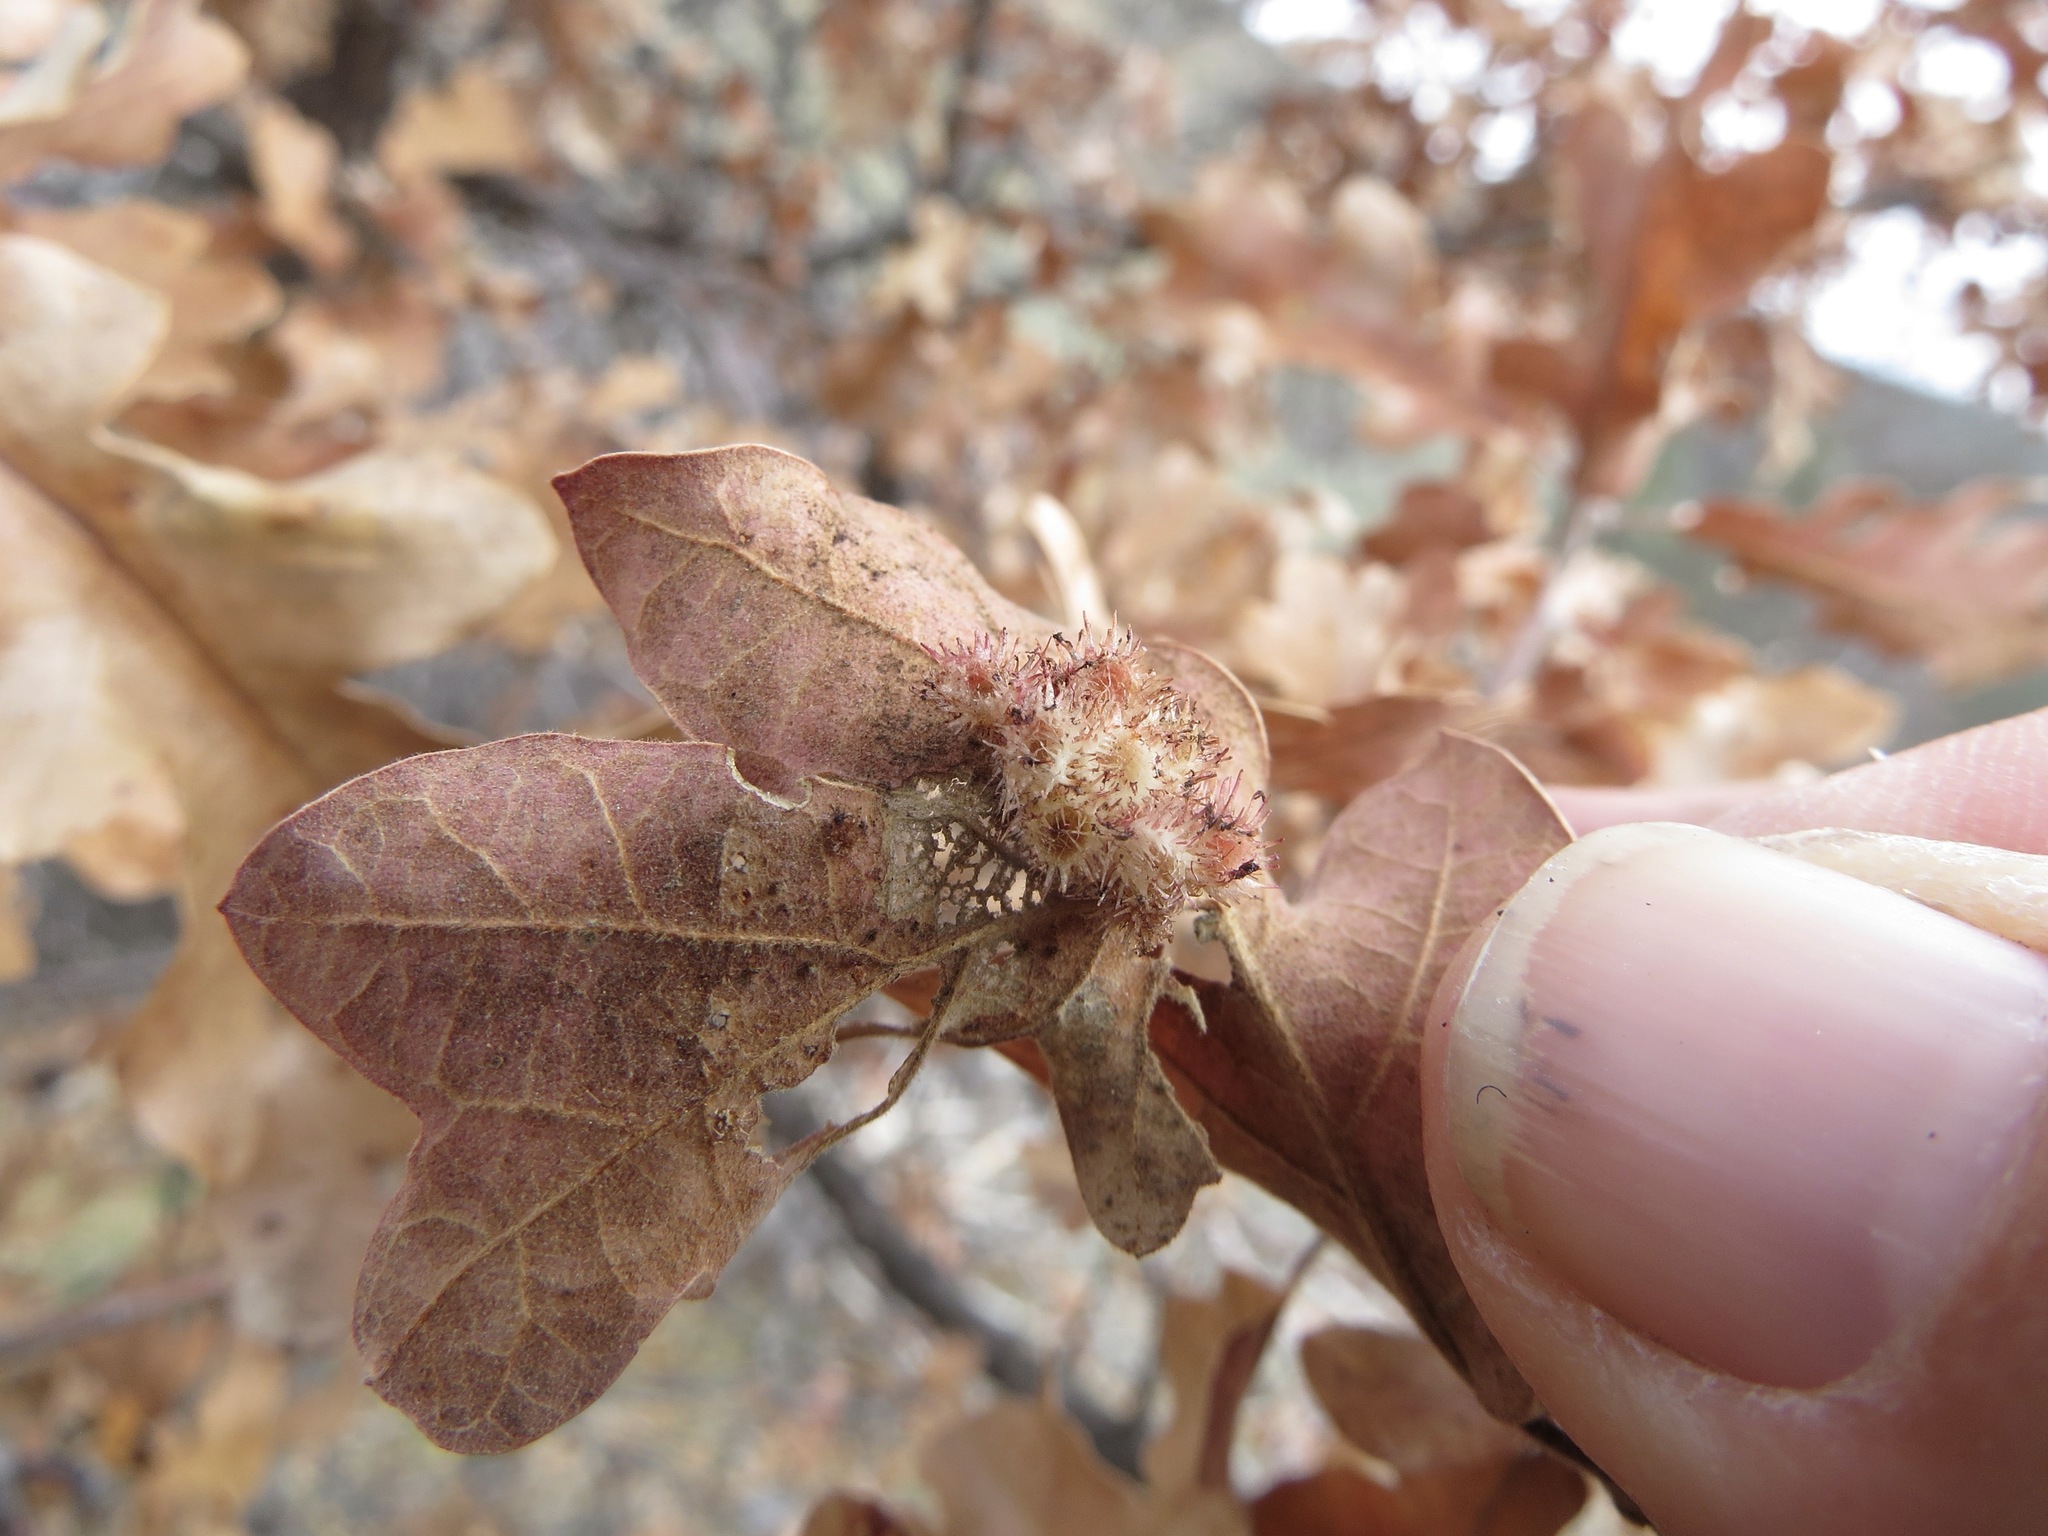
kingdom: Animalia
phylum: Arthropoda
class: Insecta
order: Hymenoptera
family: Cynipidae
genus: Andricus
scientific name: Andricus
